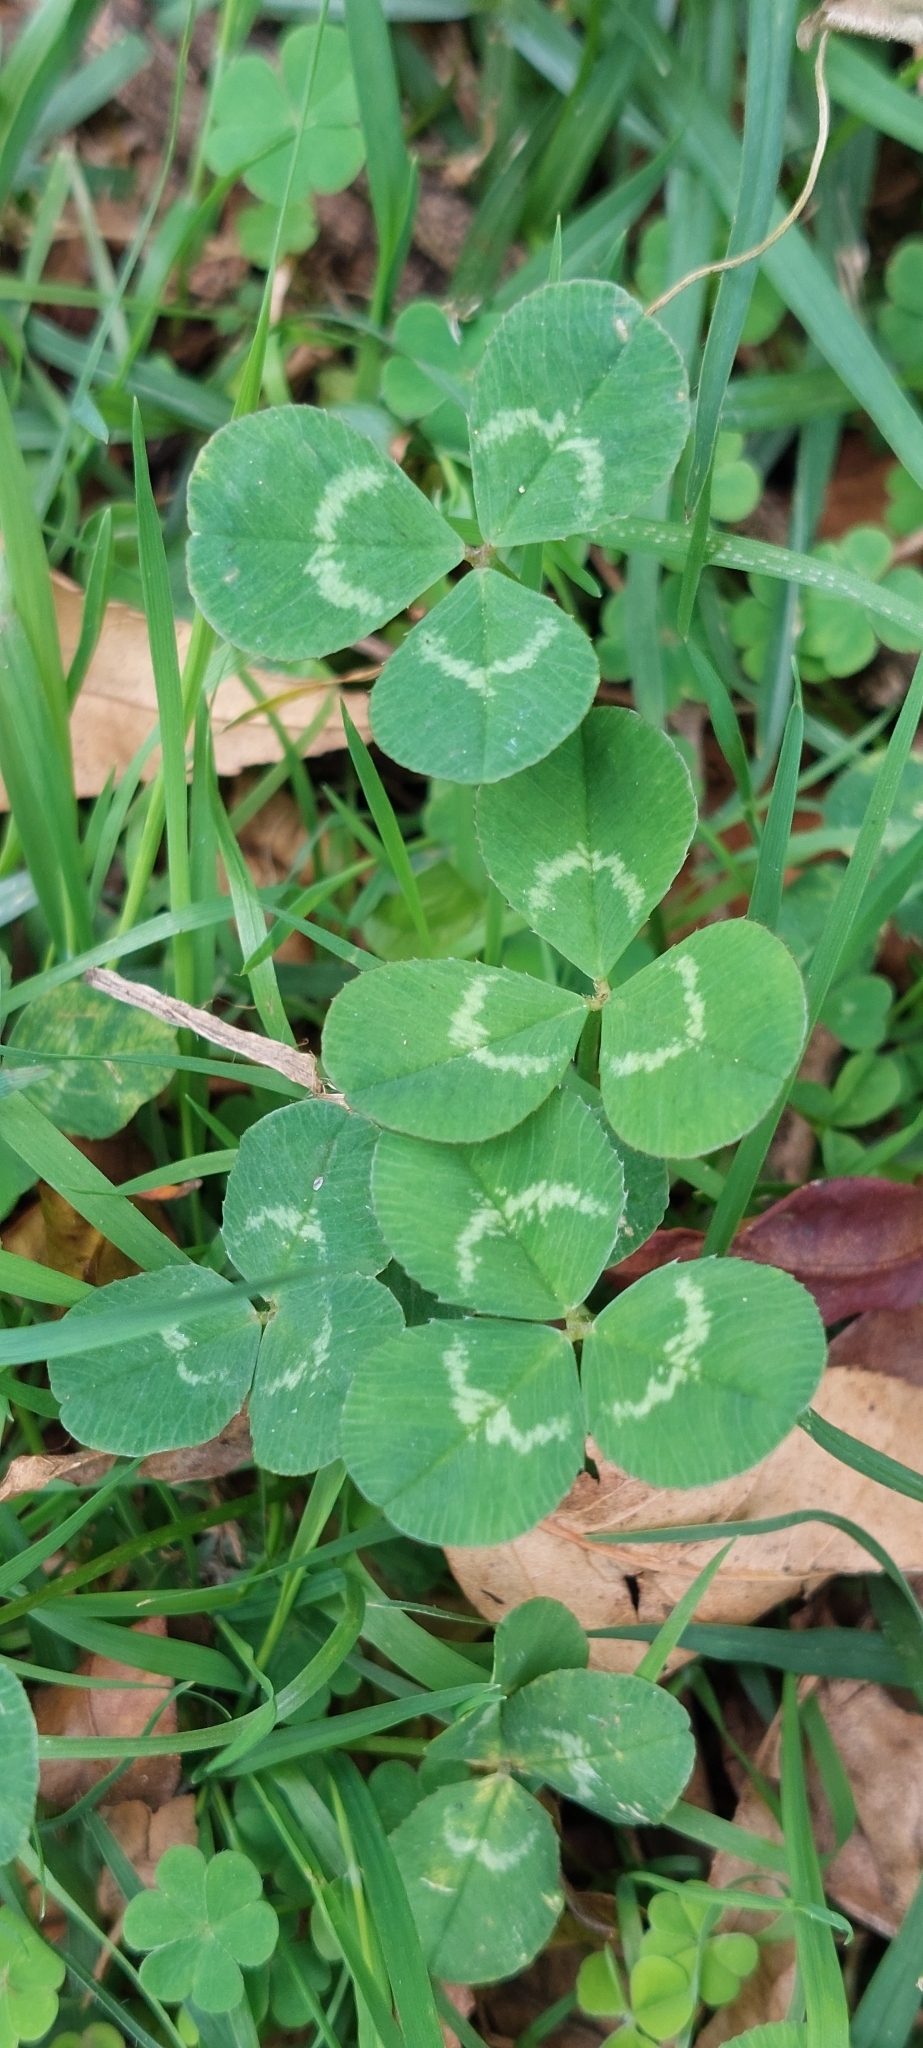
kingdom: Plantae
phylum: Tracheophyta
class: Magnoliopsida
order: Fabales
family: Fabaceae
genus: Trifolium
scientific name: Trifolium repens
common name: White clover
